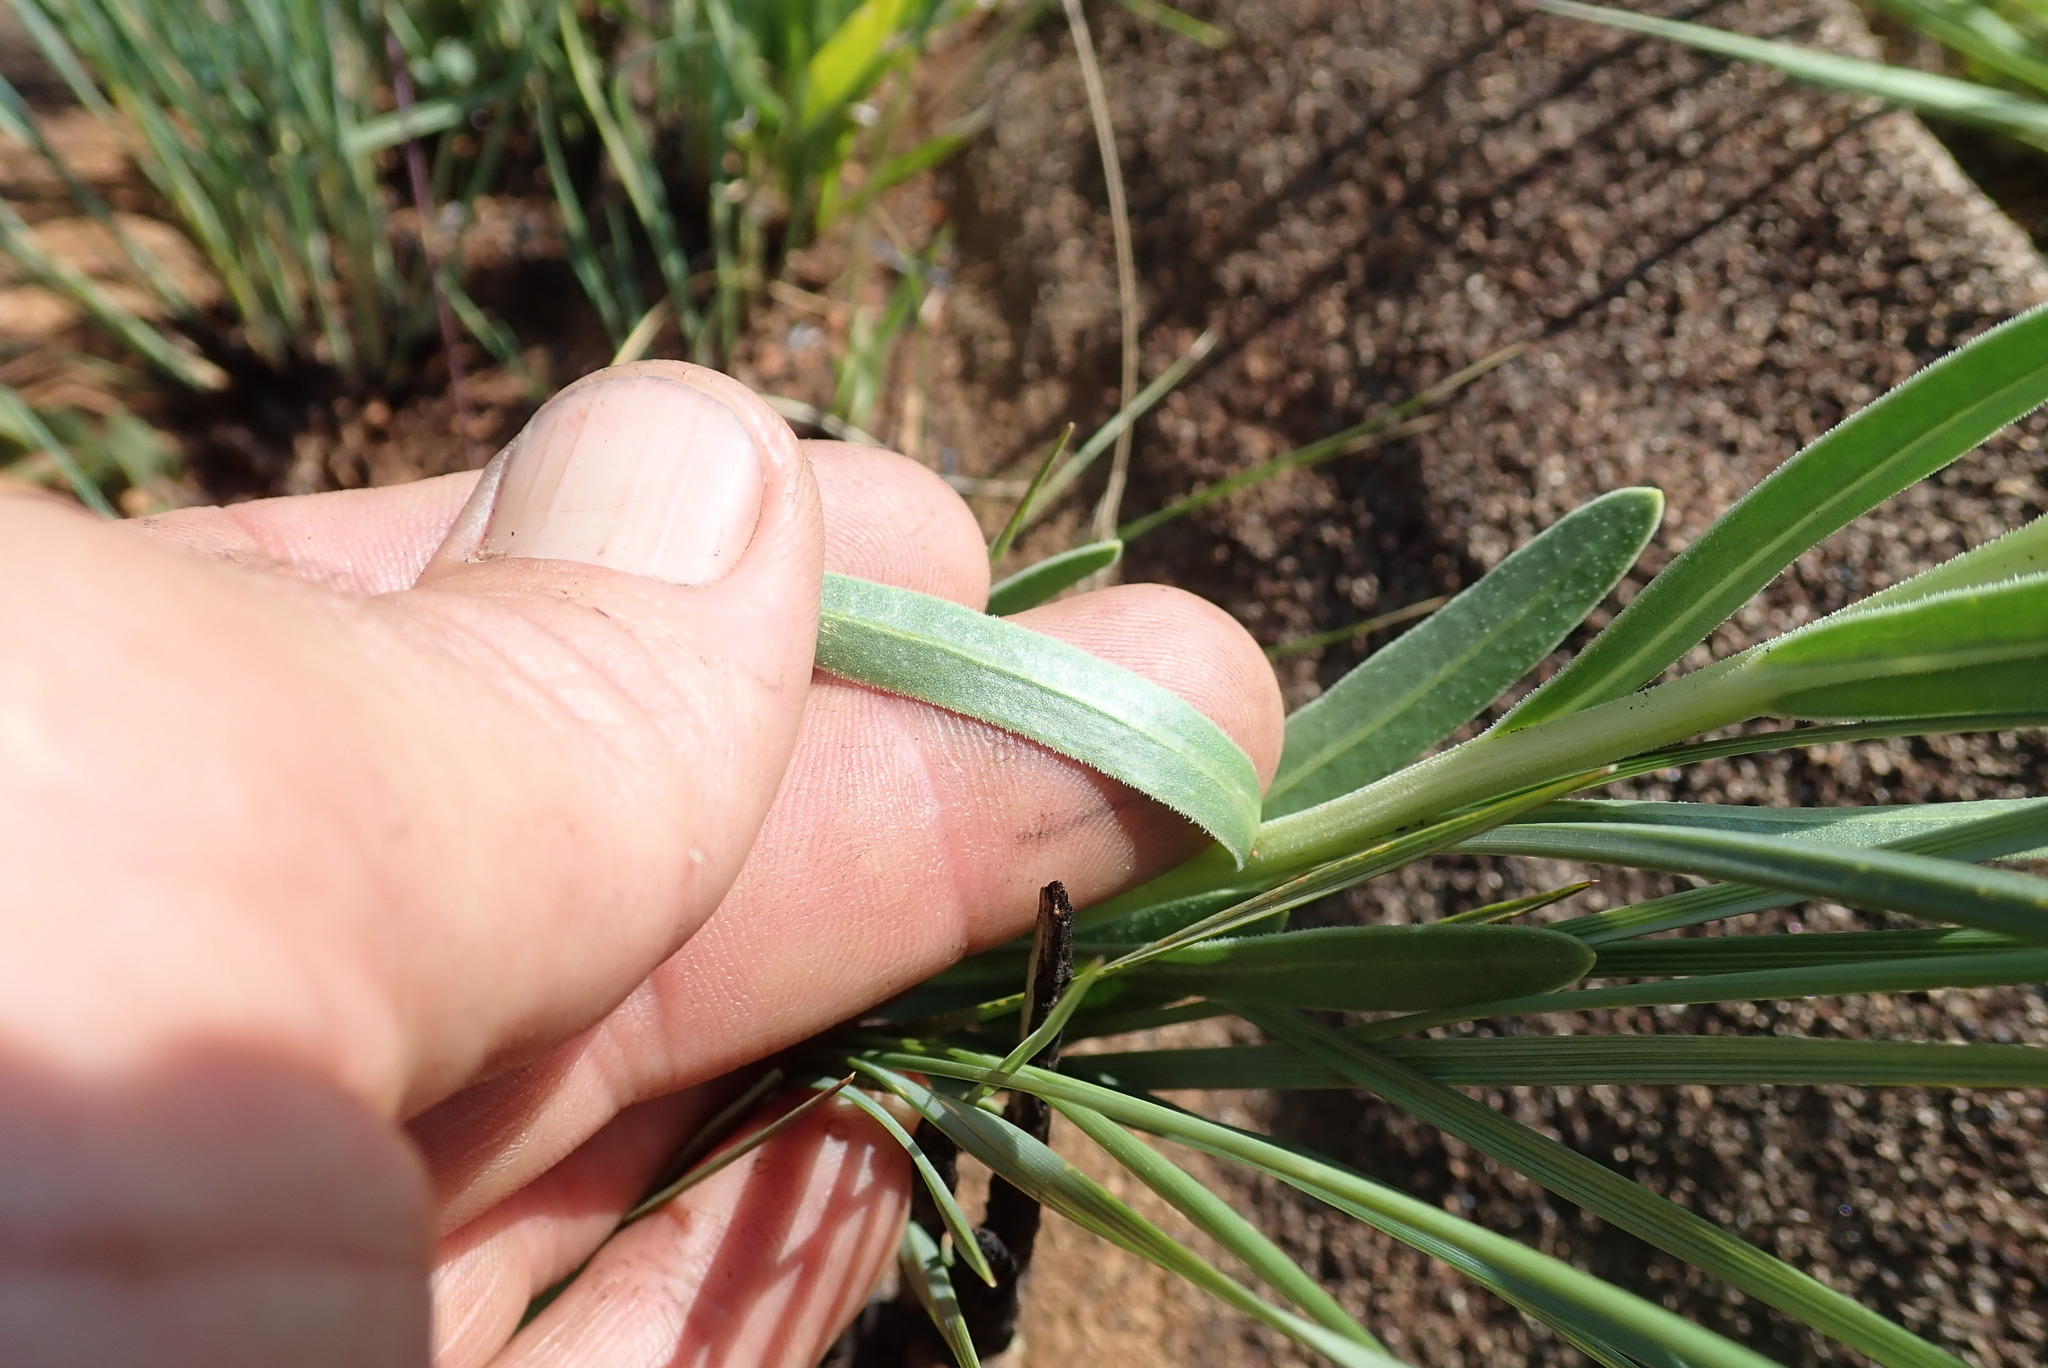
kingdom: Plantae
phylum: Tracheophyta
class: Magnoliopsida
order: Asterales
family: Asteraceae
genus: Dimorphotheca
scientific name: Dimorphotheca jucunda
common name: Osteospermum
